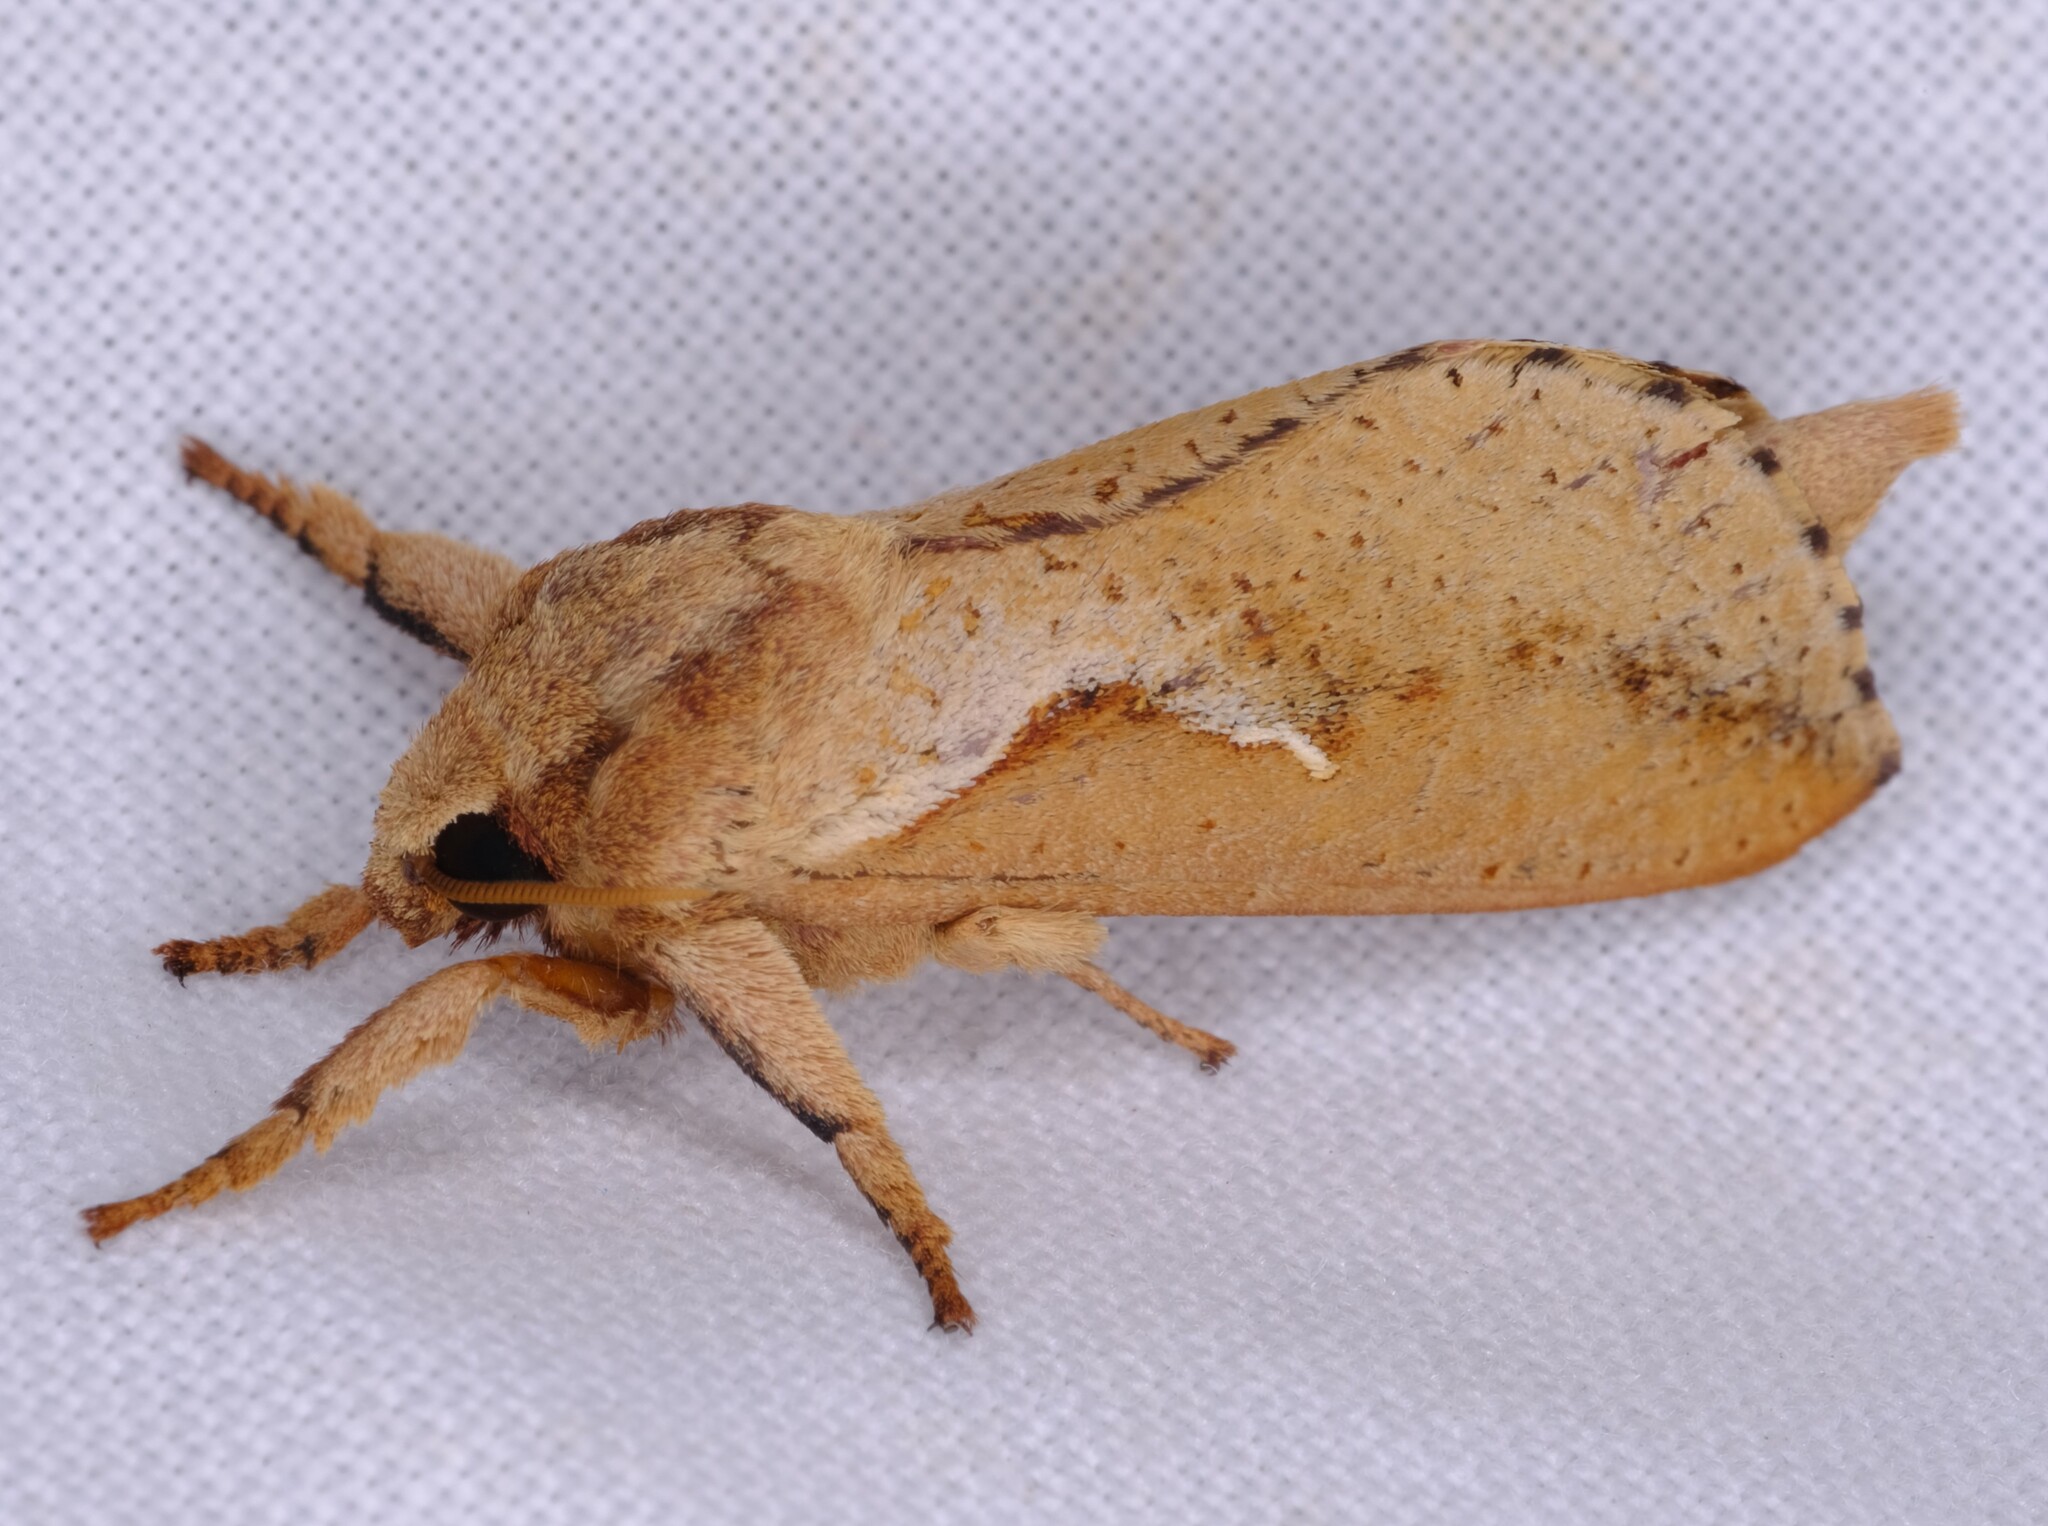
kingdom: Animalia
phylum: Arthropoda
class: Insecta
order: Lepidoptera
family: Hepialidae
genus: Elhamma
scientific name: Elhamma australasiae
